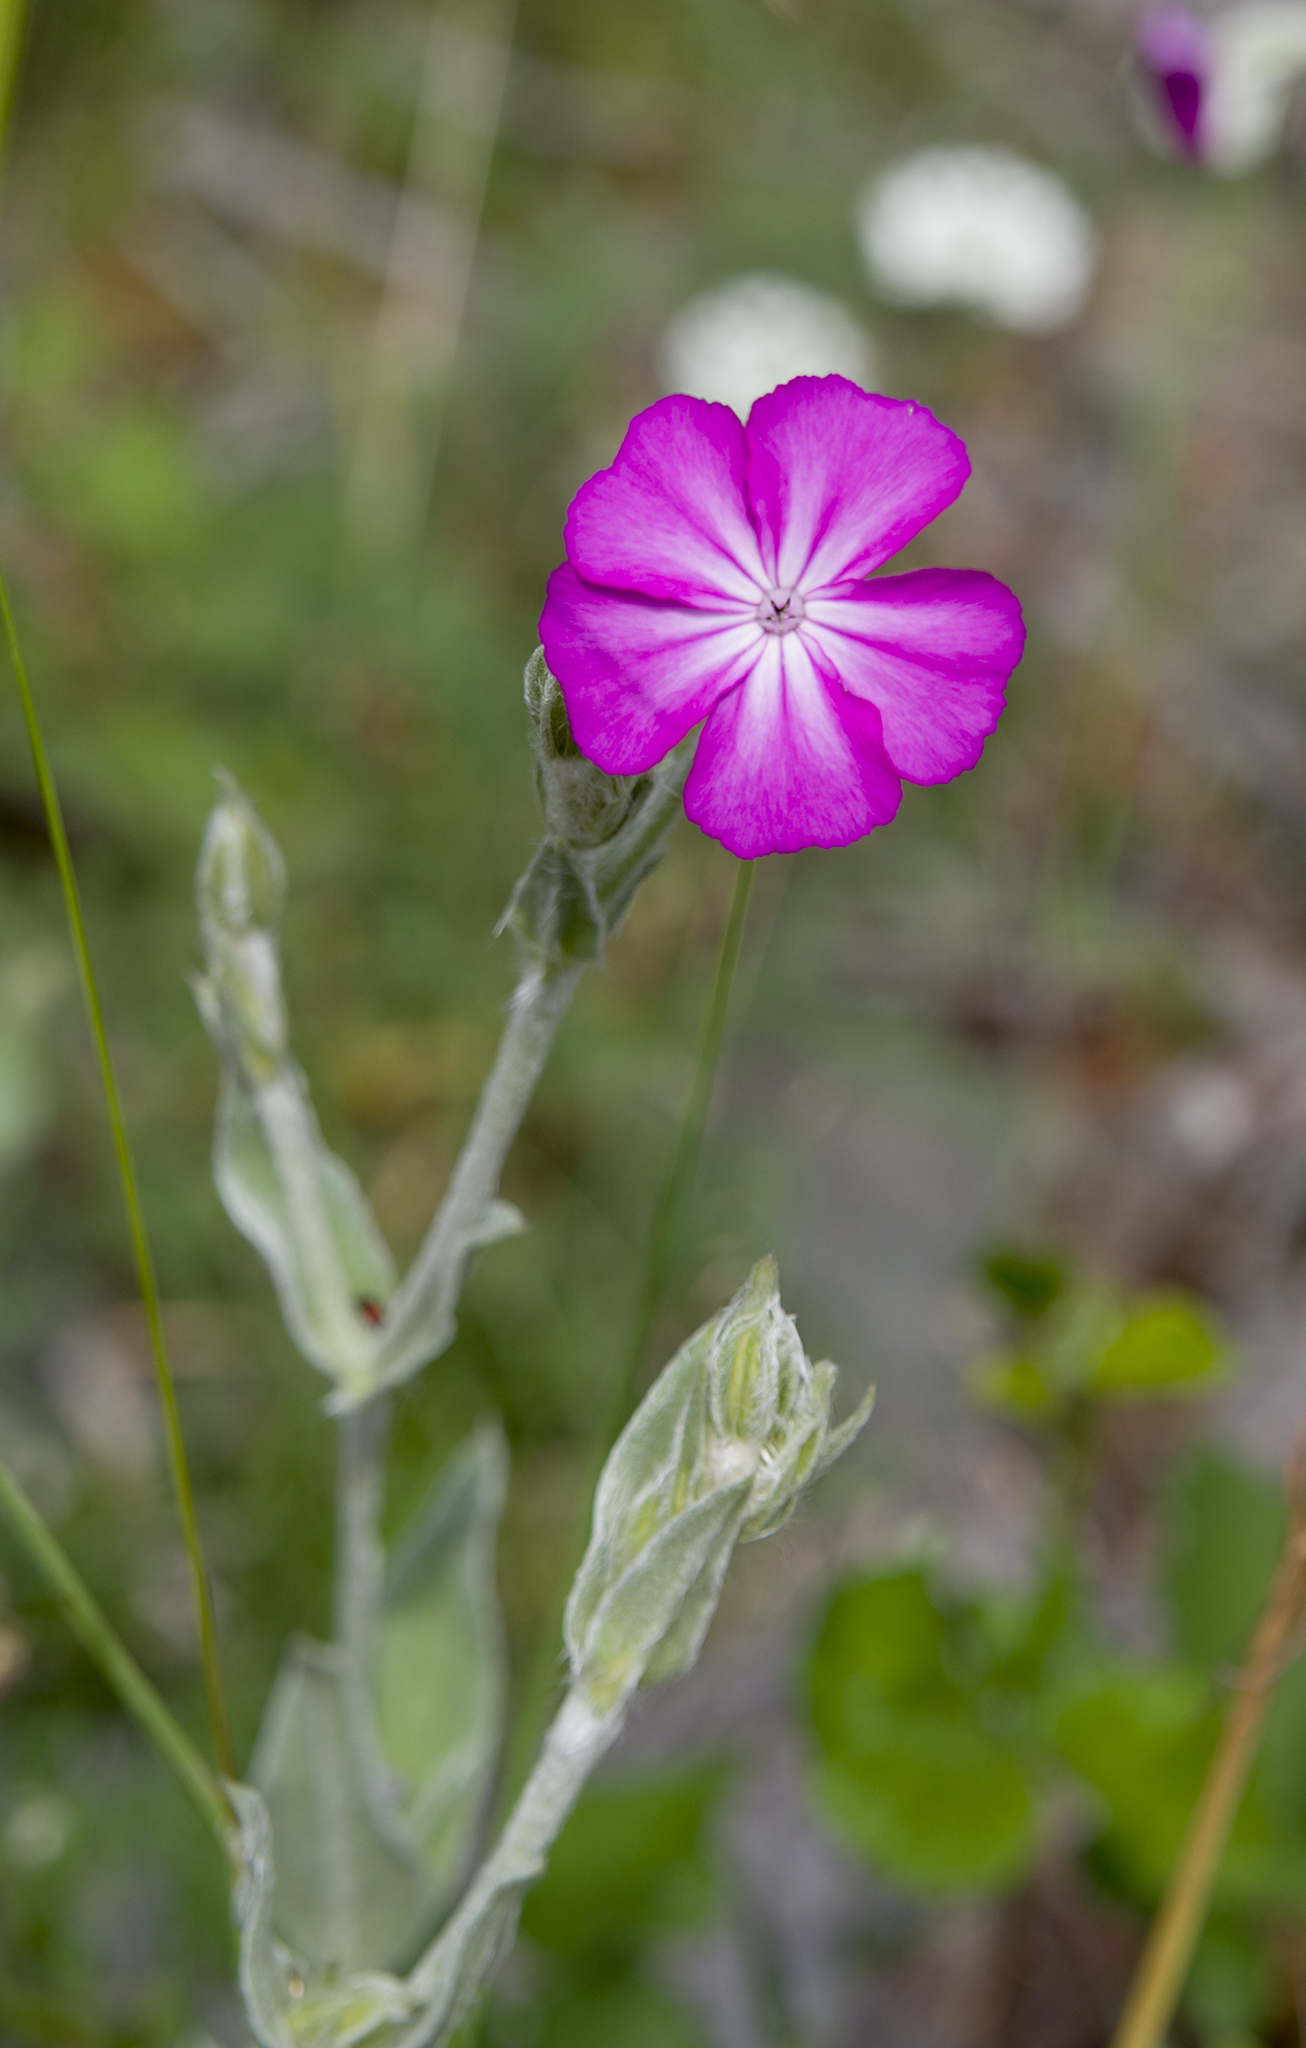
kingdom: Plantae
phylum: Tracheophyta
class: Magnoliopsida
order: Caryophyllales
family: Caryophyllaceae
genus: Silene
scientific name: Silene coronaria
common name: Rose campion
